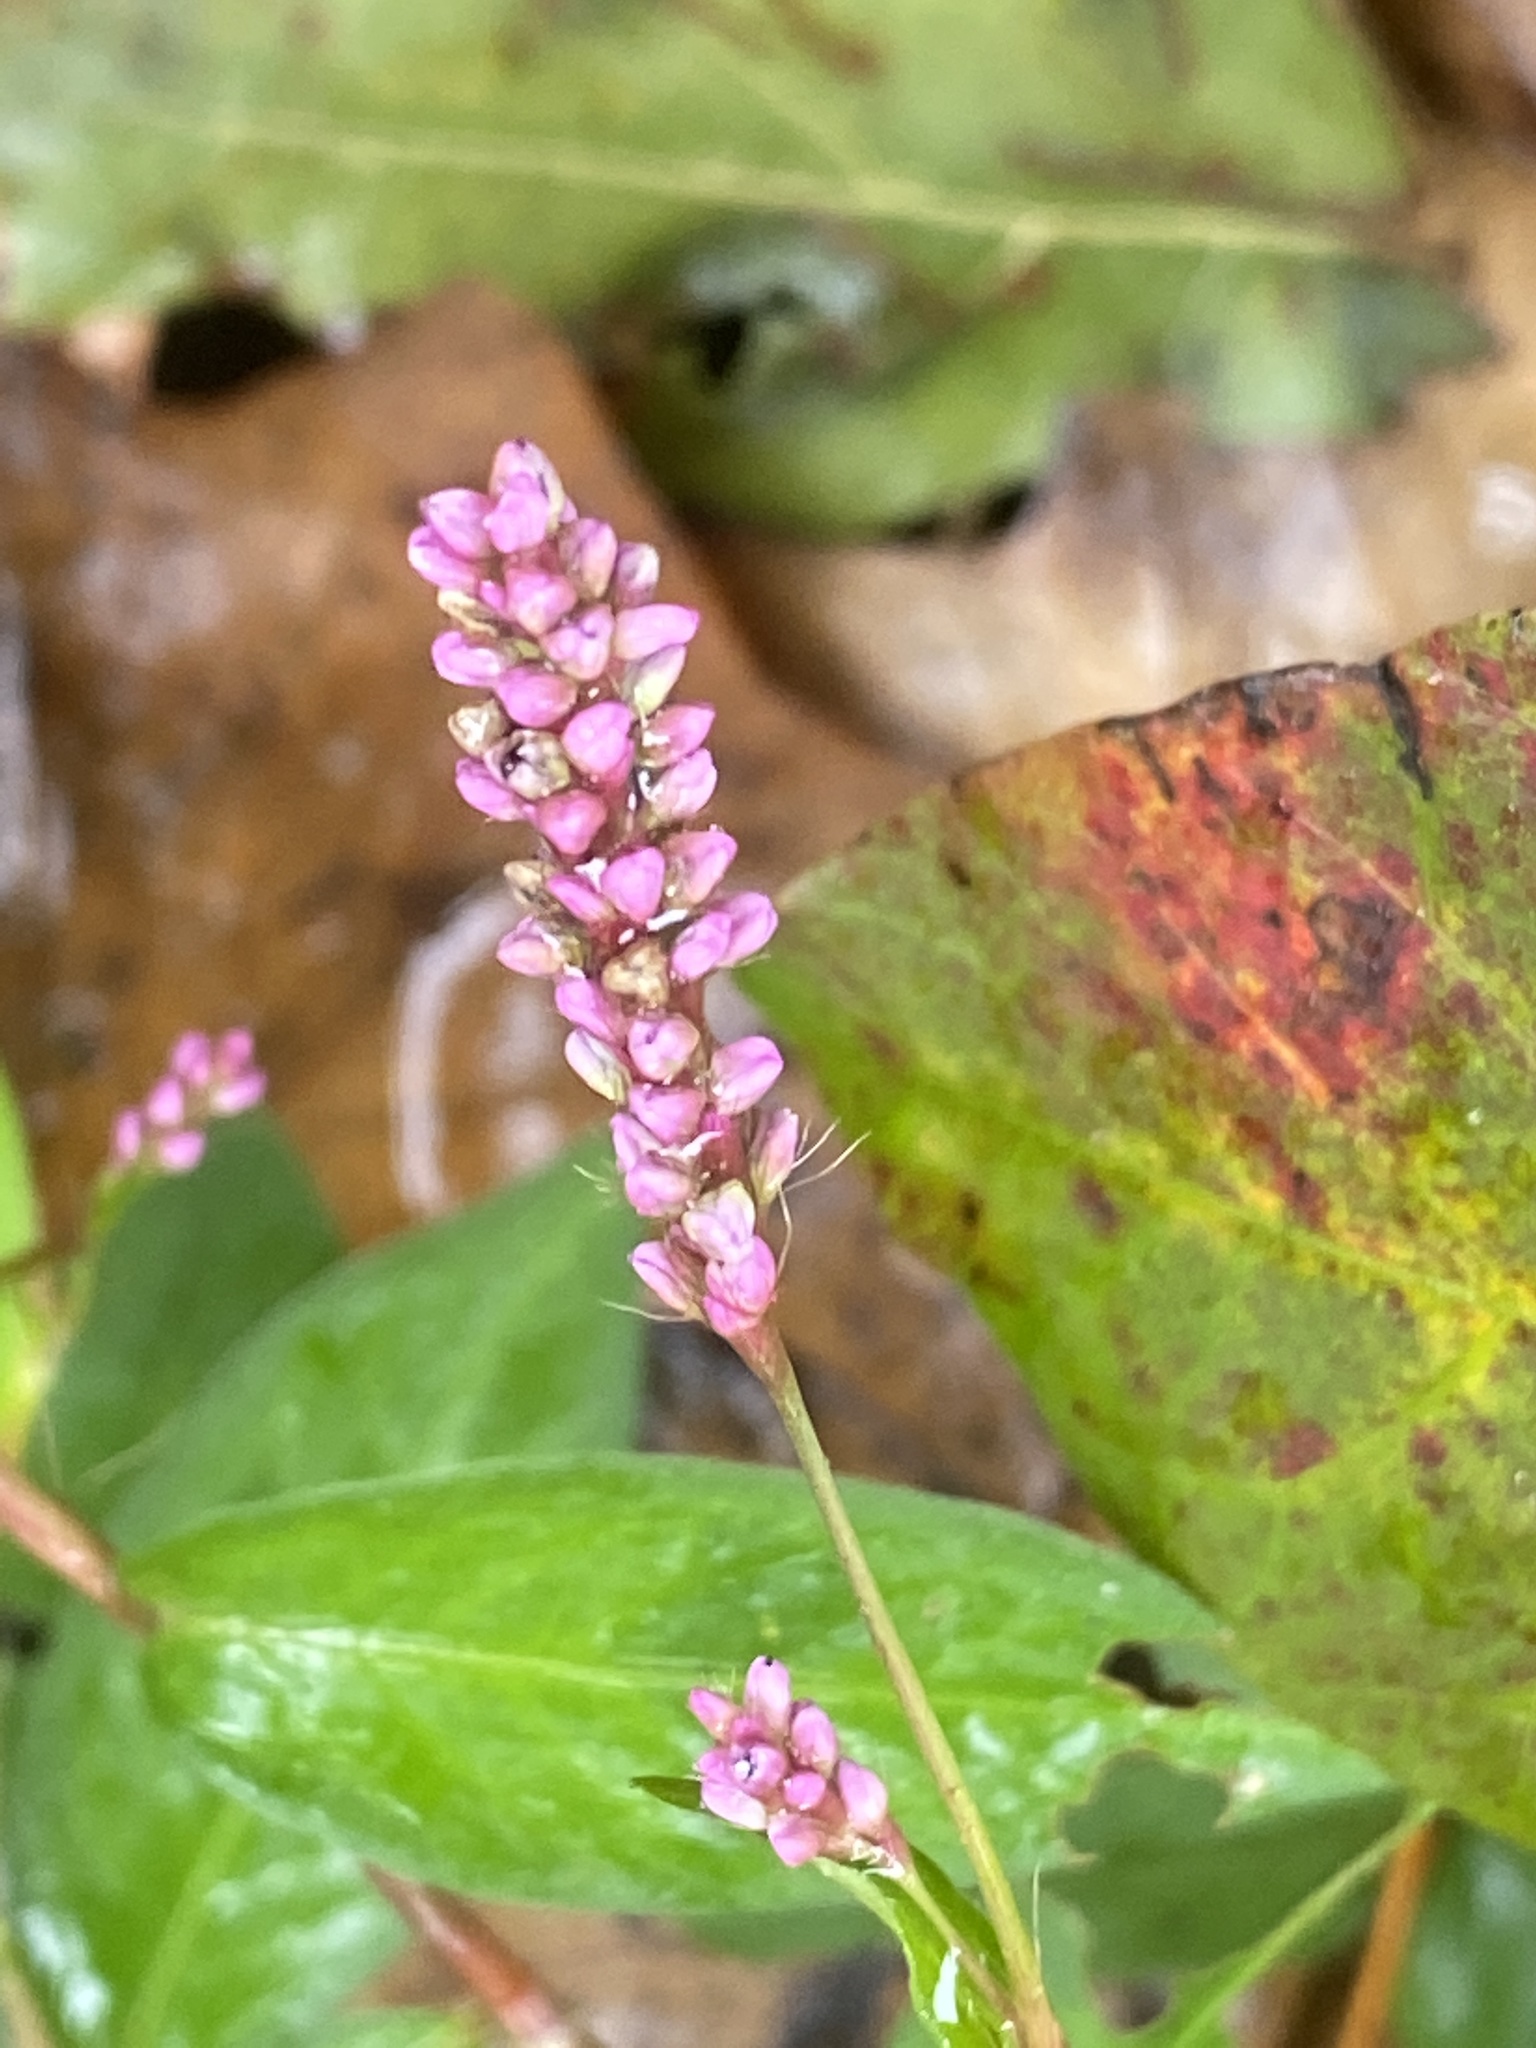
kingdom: Plantae
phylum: Tracheophyta
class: Magnoliopsida
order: Caryophyllales
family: Polygonaceae
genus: Persicaria
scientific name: Persicaria longiseta
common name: Bristly lady's-thumb
